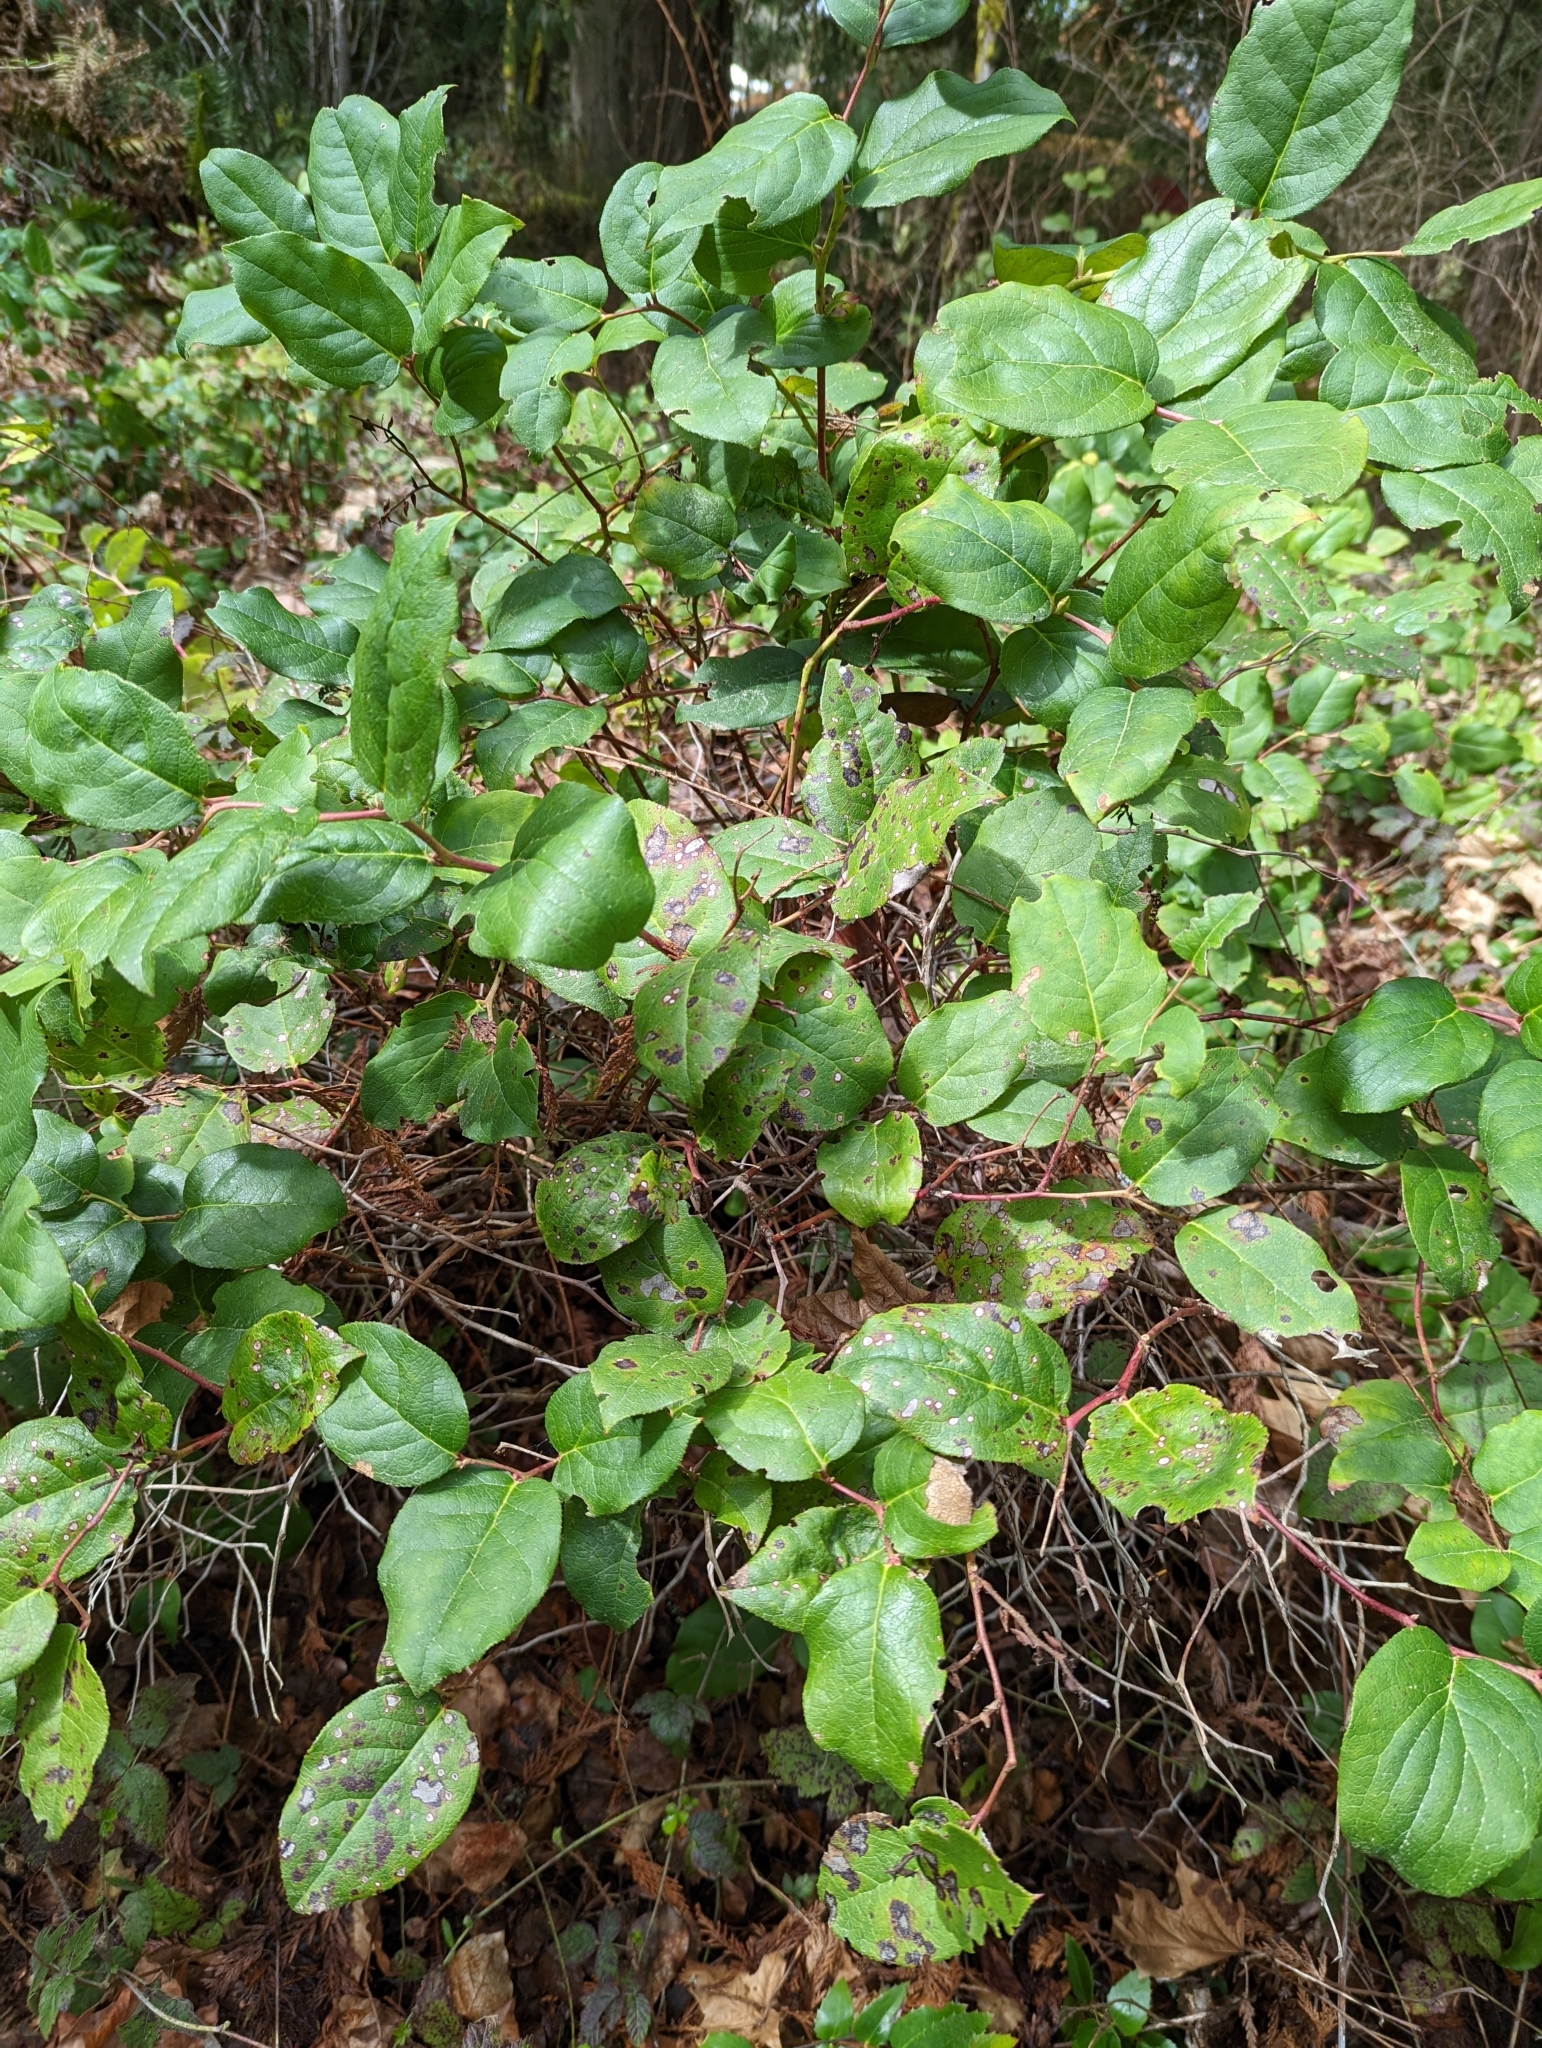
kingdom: Plantae
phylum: Tracheophyta
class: Magnoliopsida
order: Ericales
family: Ericaceae
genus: Gaultheria
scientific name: Gaultheria shallon
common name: Shallon
